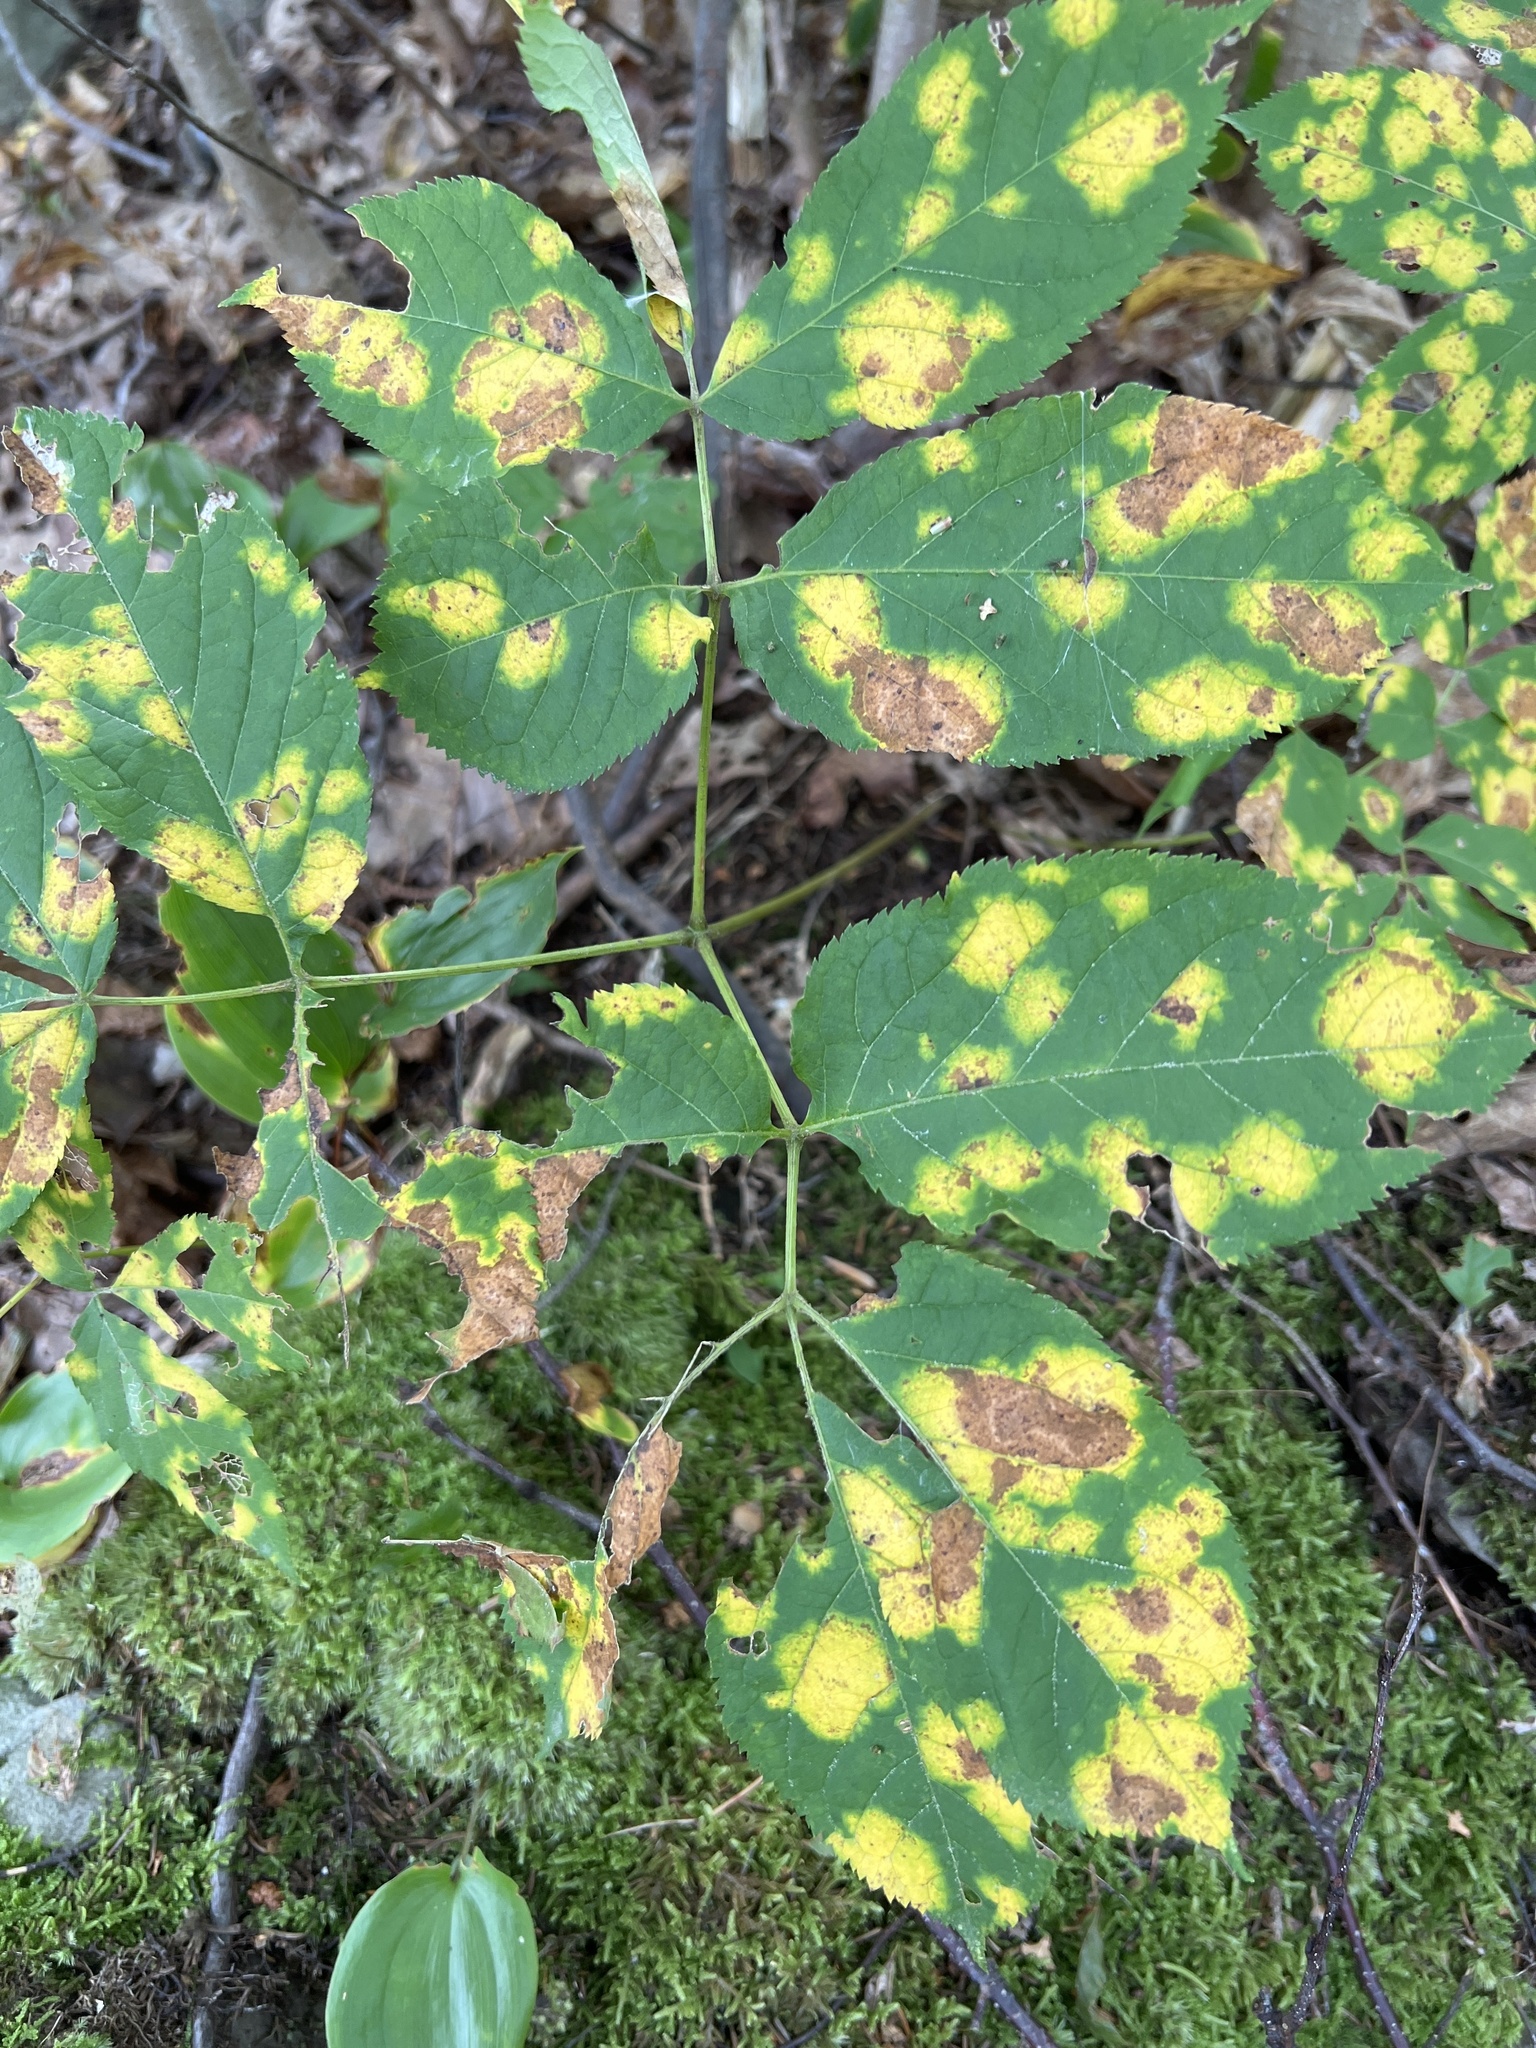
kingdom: Plantae
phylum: Tracheophyta
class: Magnoliopsida
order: Apiales
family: Araliaceae
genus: Aralia
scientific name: Aralia nudicaulis
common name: Wild sarsaparilla
